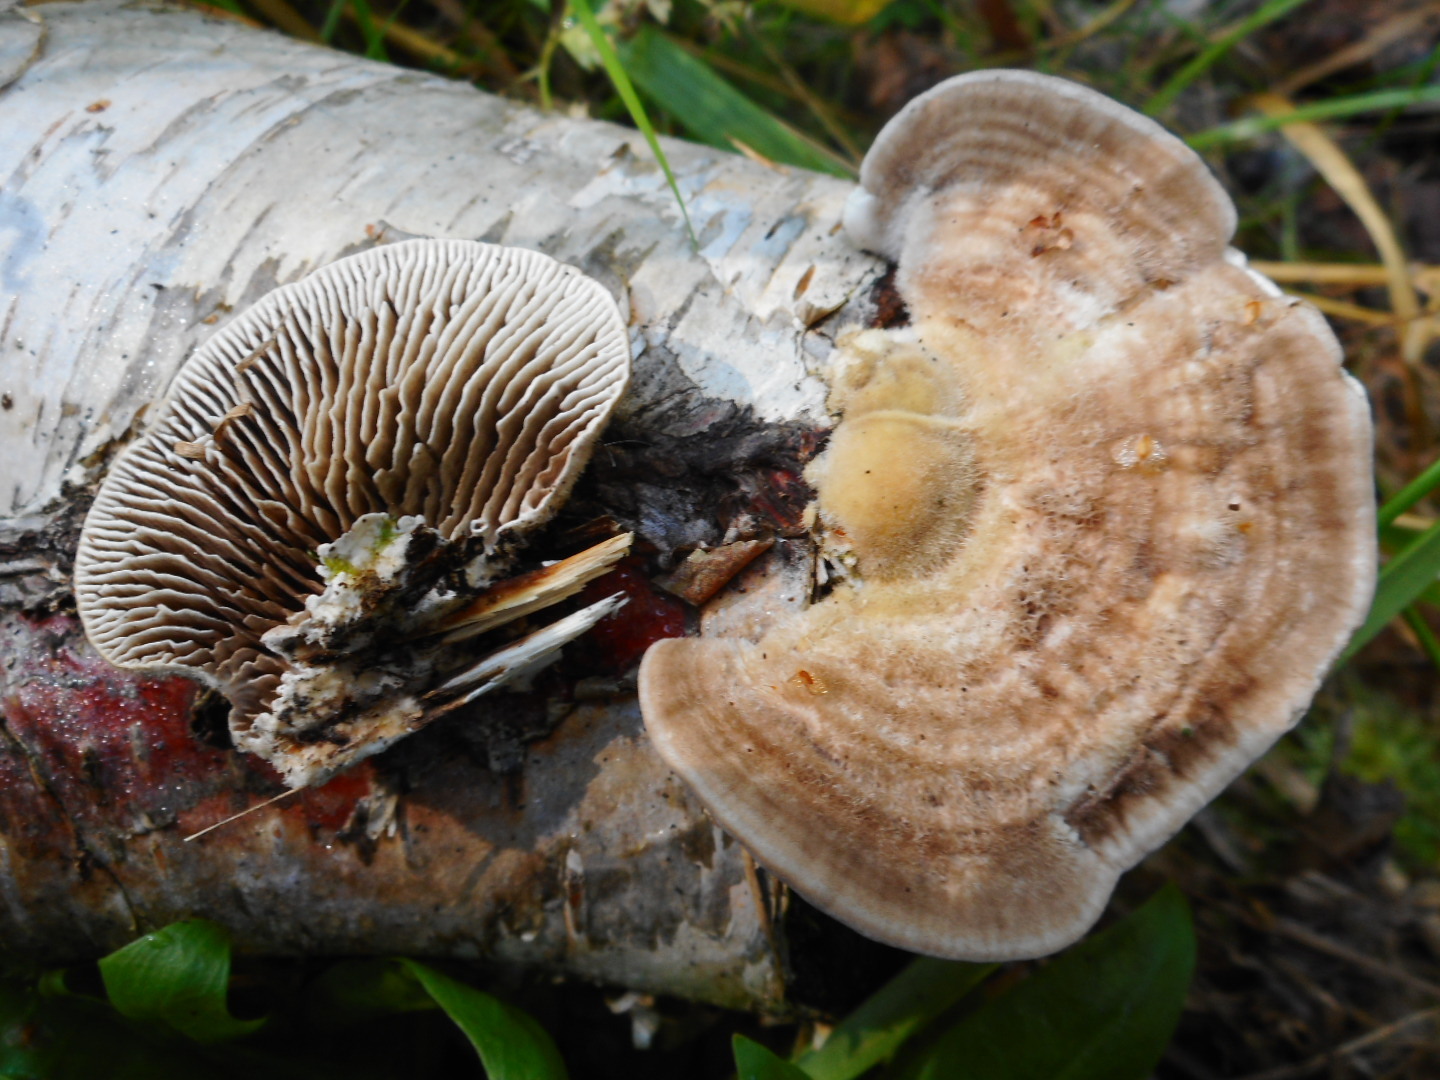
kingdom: Fungi
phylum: Basidiomycota
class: Agaricomycetes
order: Polyporales
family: Polyporaceae
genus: Lenzites
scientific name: Lenzites betulinus
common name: Birch mazegill
